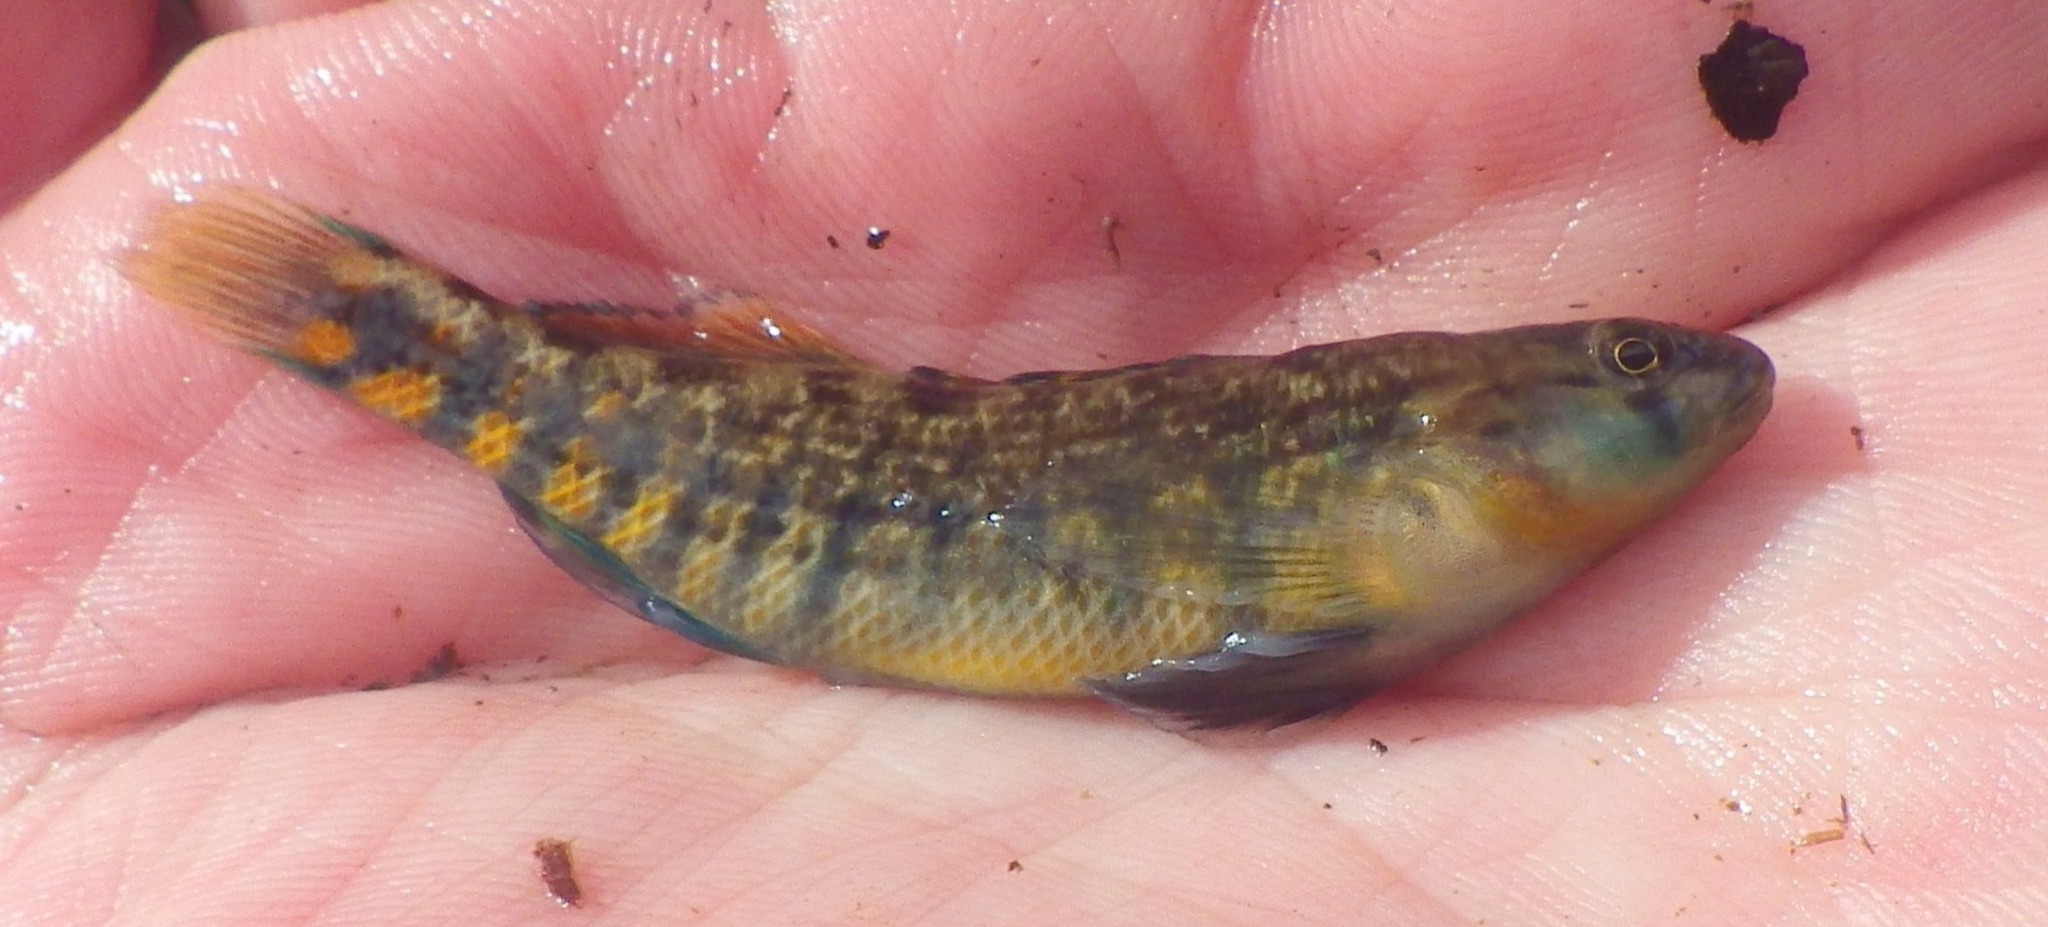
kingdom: Animalia
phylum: Chordata
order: Perciformes
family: Percidae
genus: Etheostoma
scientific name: Etheostoma spectabile
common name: Orangethroat darter
